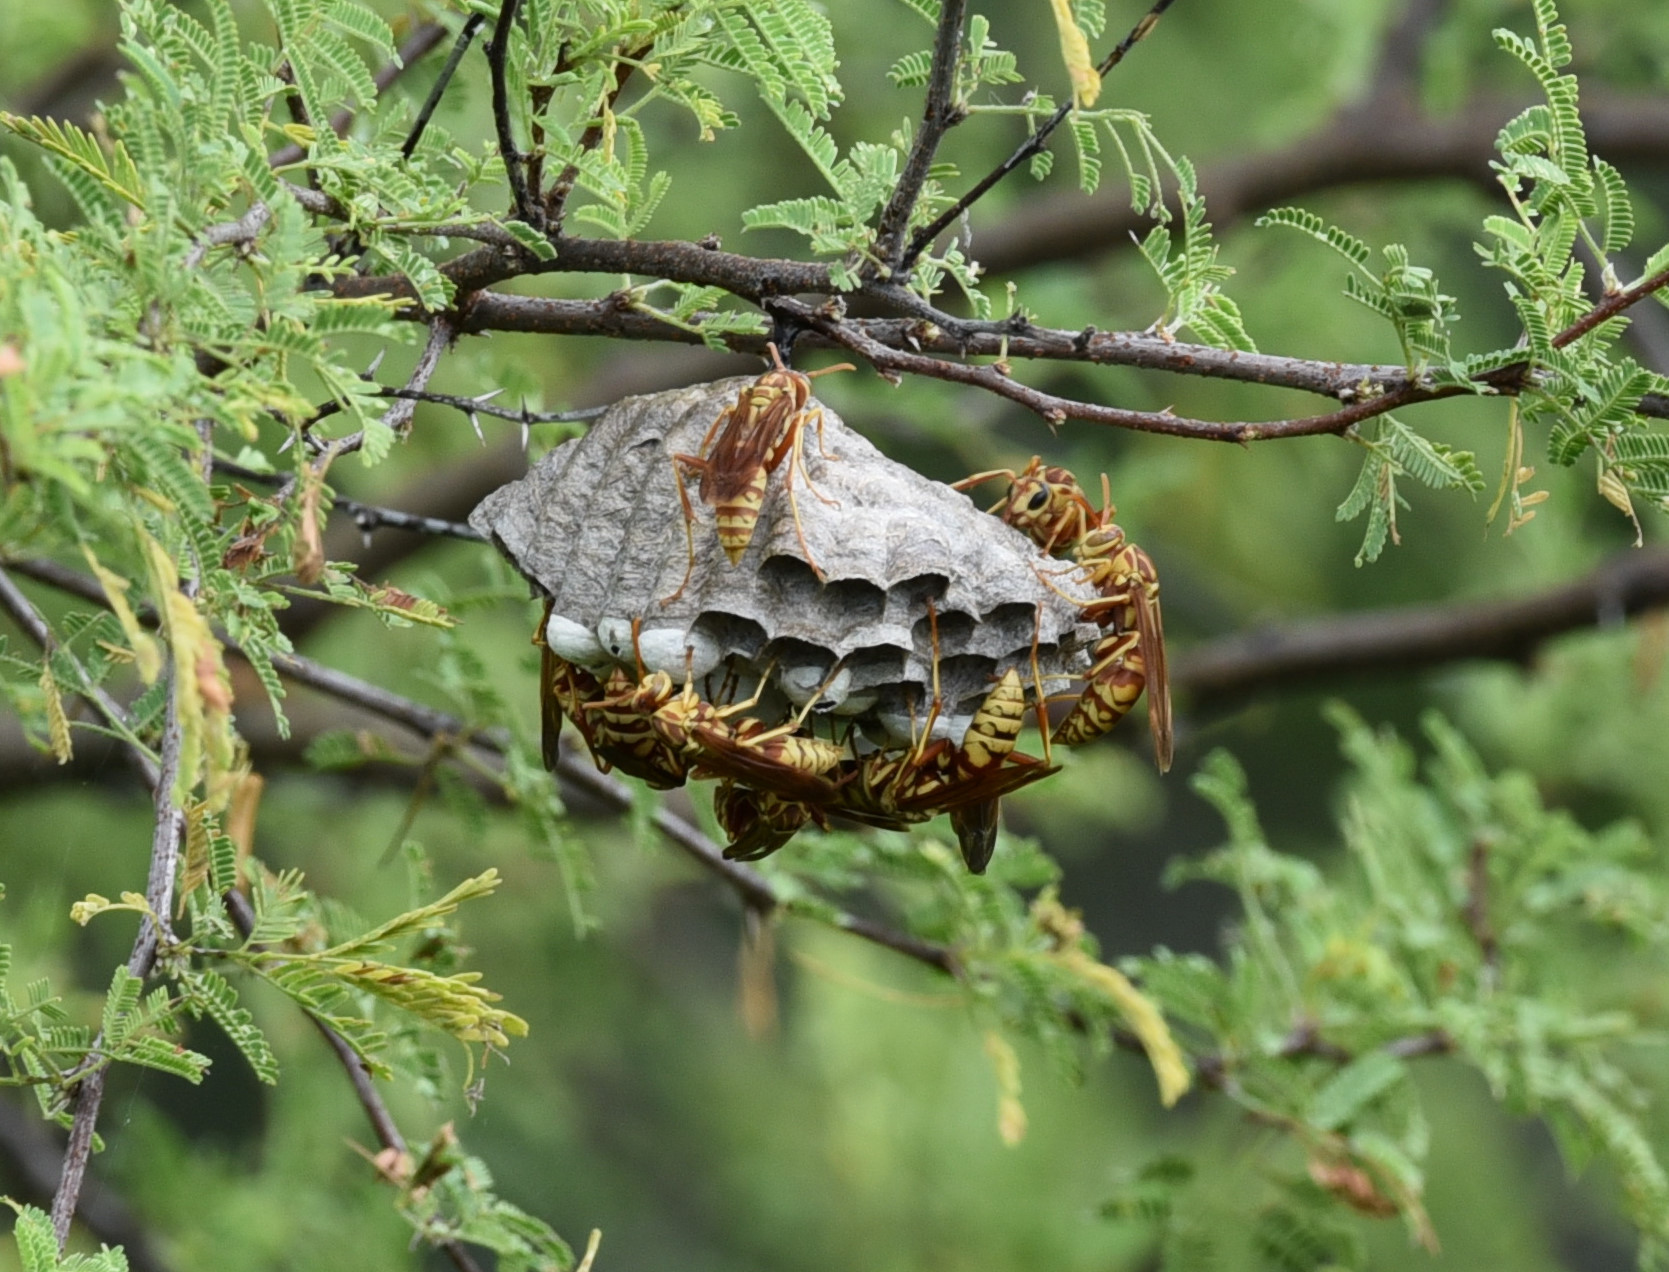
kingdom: Animalia
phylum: Arthropoda
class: Insecta
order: Hymenoptera
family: Eumenidae
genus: Polistes
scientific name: Polistes apachus
